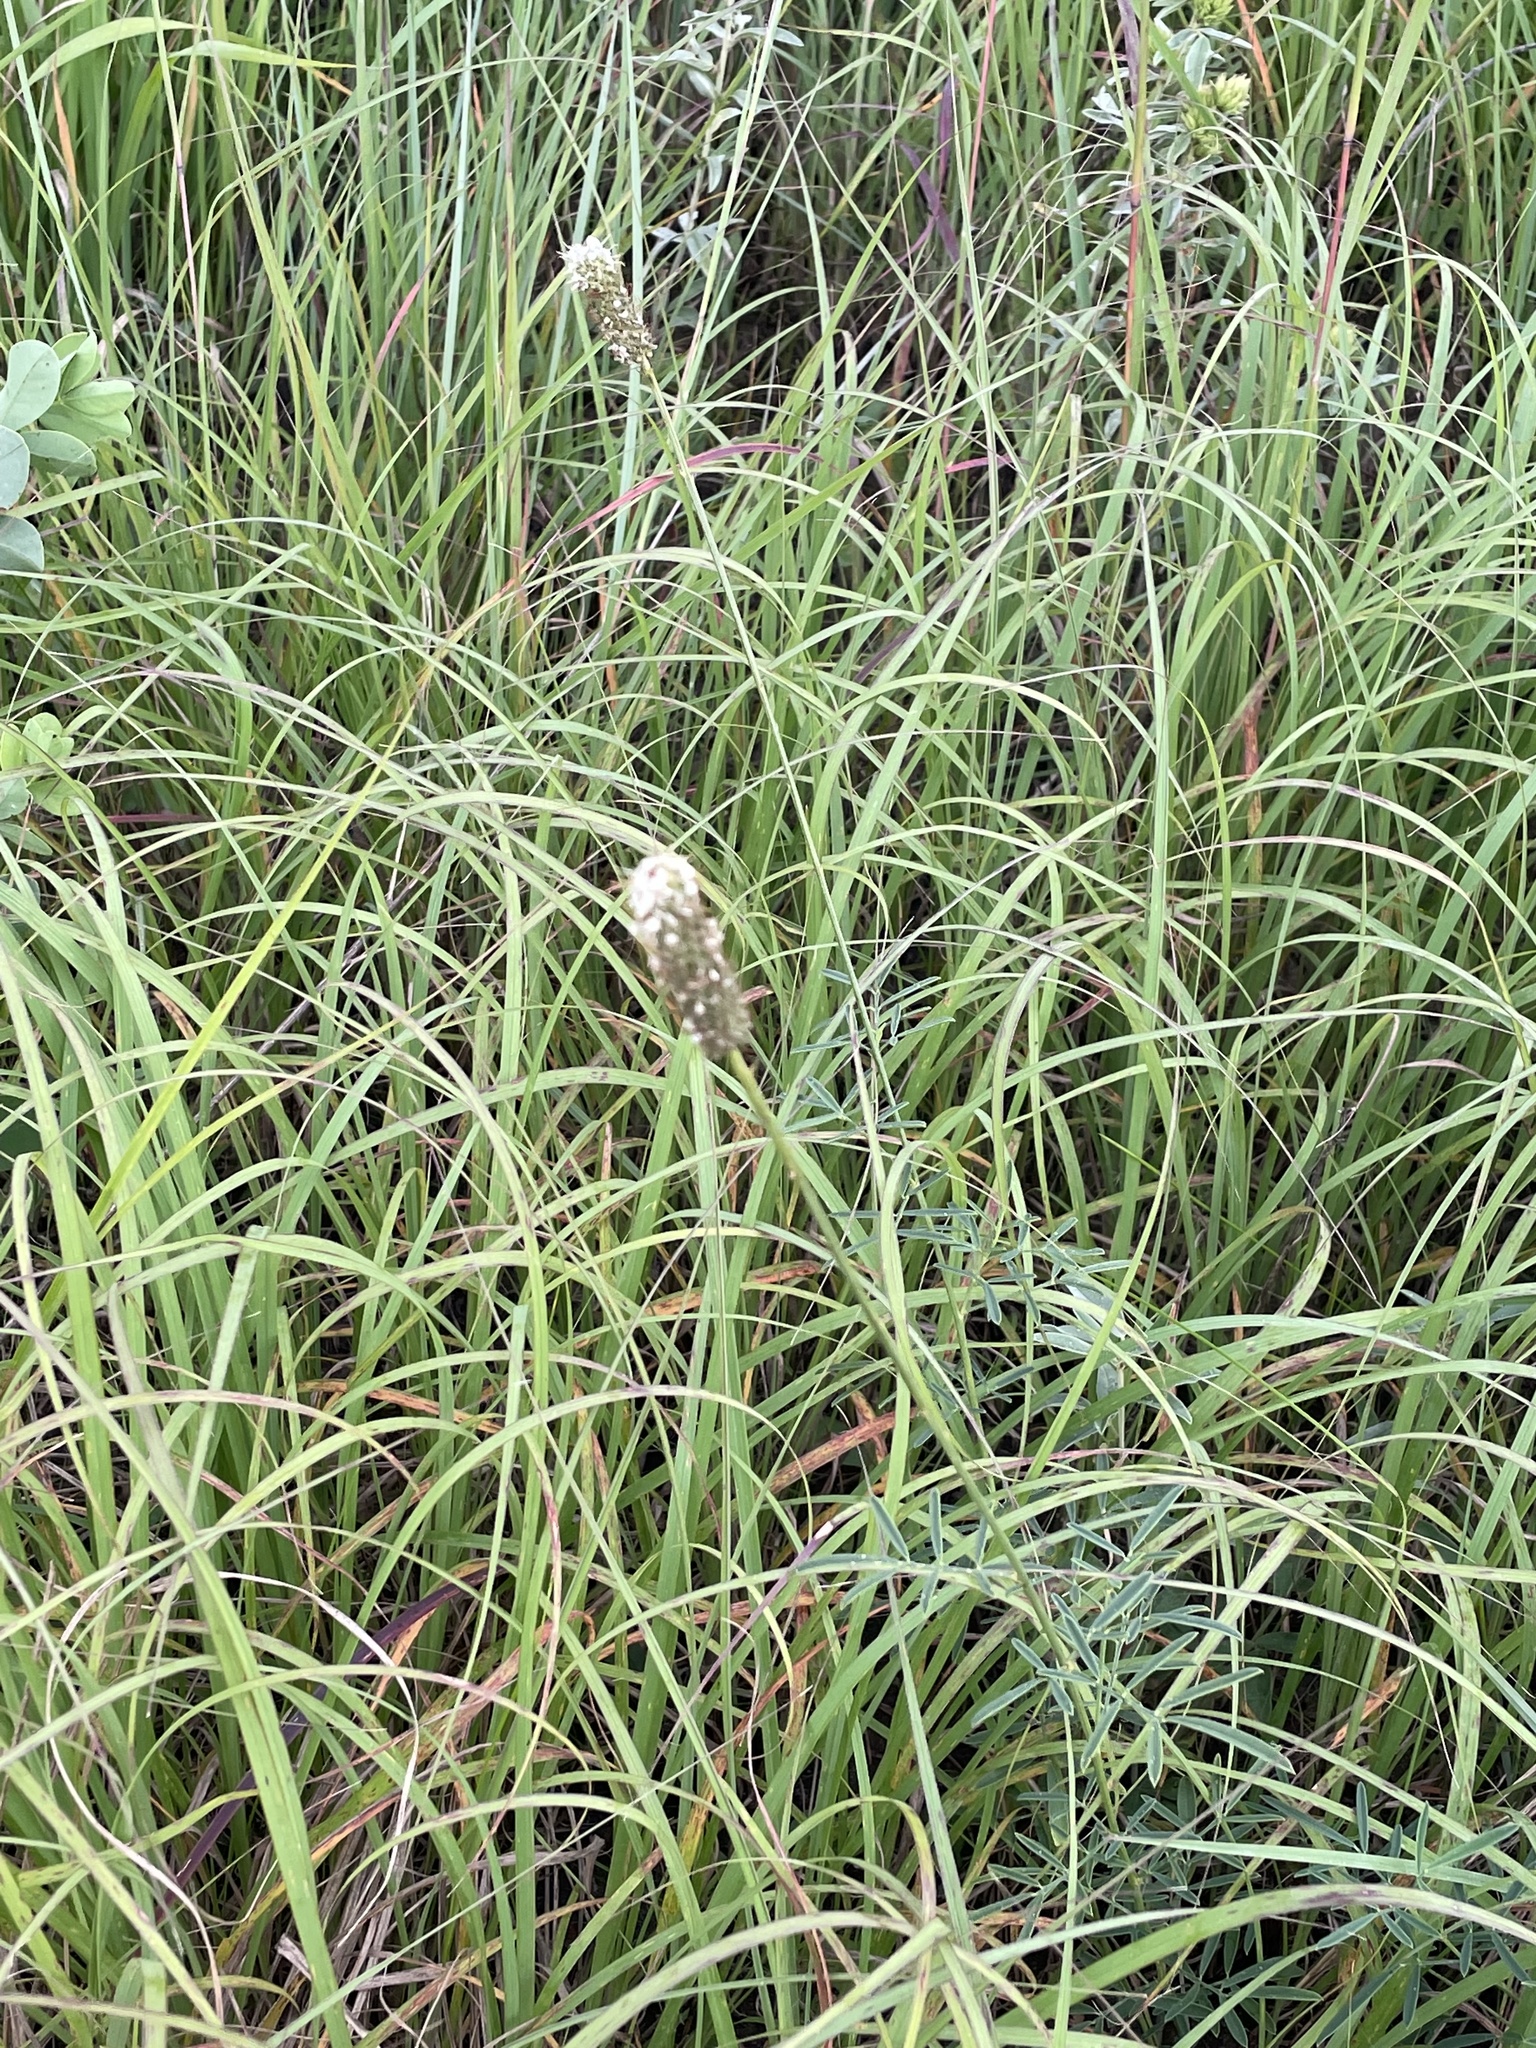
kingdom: Plantae
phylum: Tracheophyta
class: Magnoliopsida
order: Fabales
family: Fabaceae
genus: Dalea
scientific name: Dalea candida
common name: White prairie-clover
